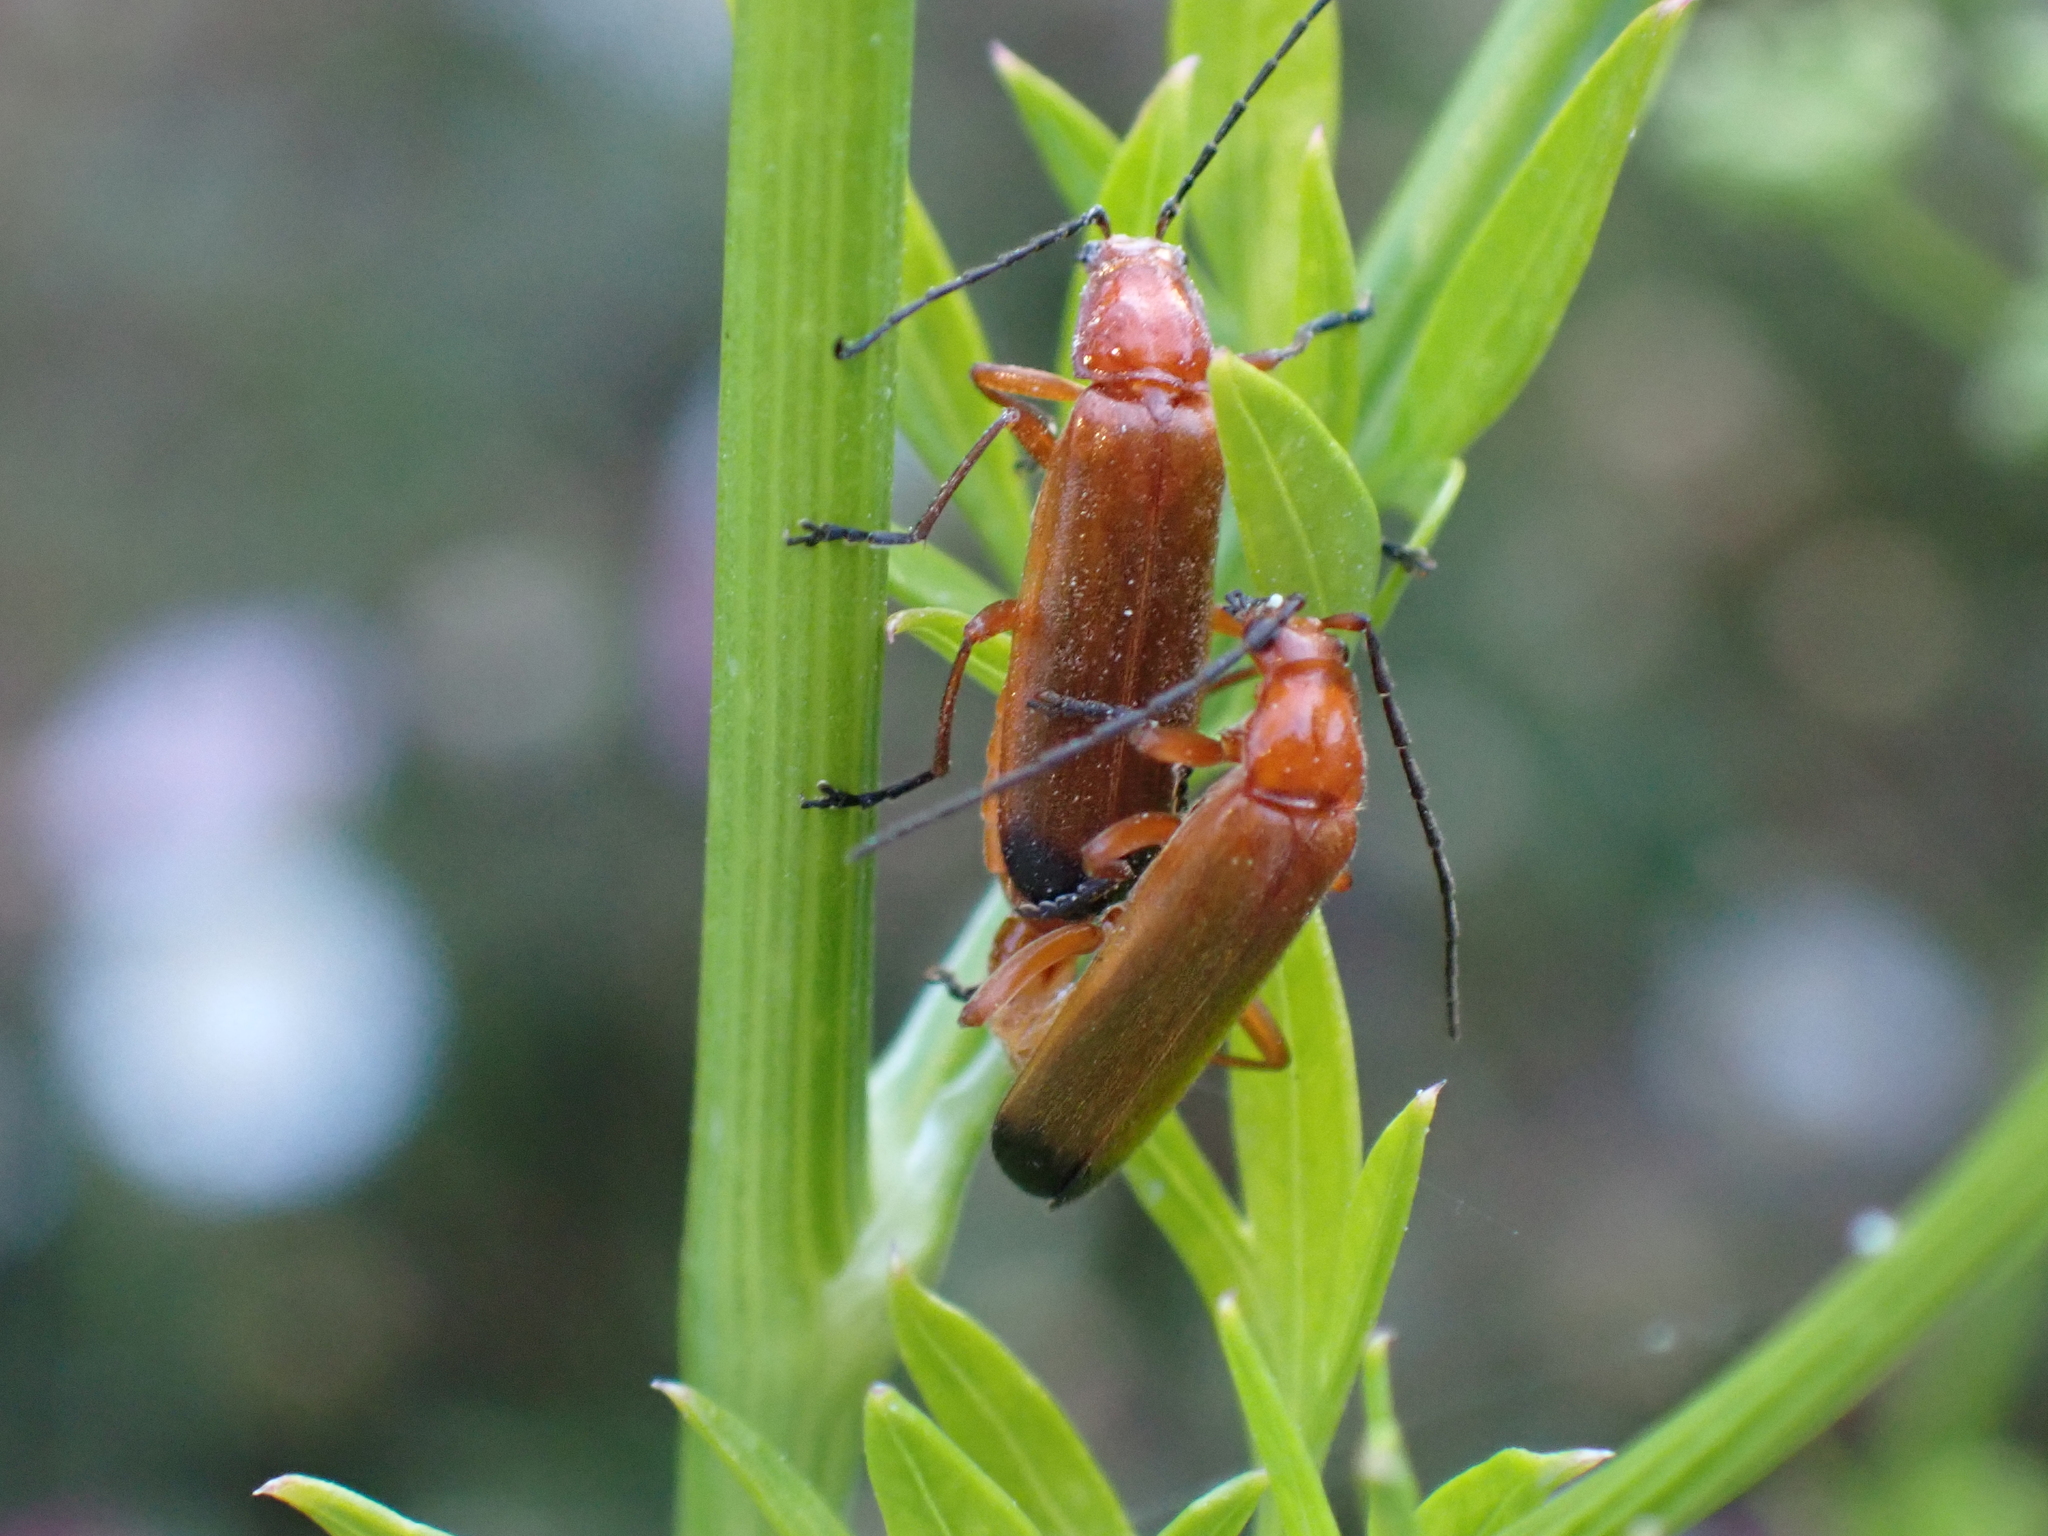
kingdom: Animalia
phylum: Arthropoda
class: Insecta
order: Coleoptera
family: Cantharidae
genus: Rhagonycha
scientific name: Rhagonycha fulva
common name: Common red soldier beetle
